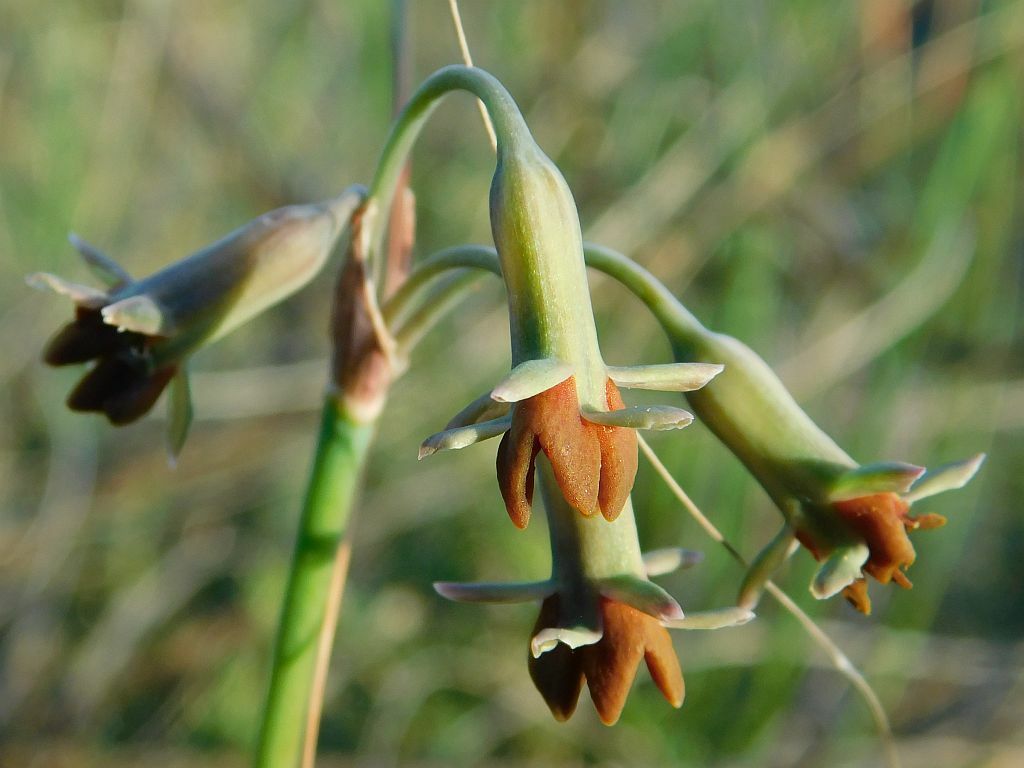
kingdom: Plantae
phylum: Tracheophyta
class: Liliopsida
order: Asparagales
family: Amaryllidaceae
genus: Tulbaghia
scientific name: Tulbaghia capensis
